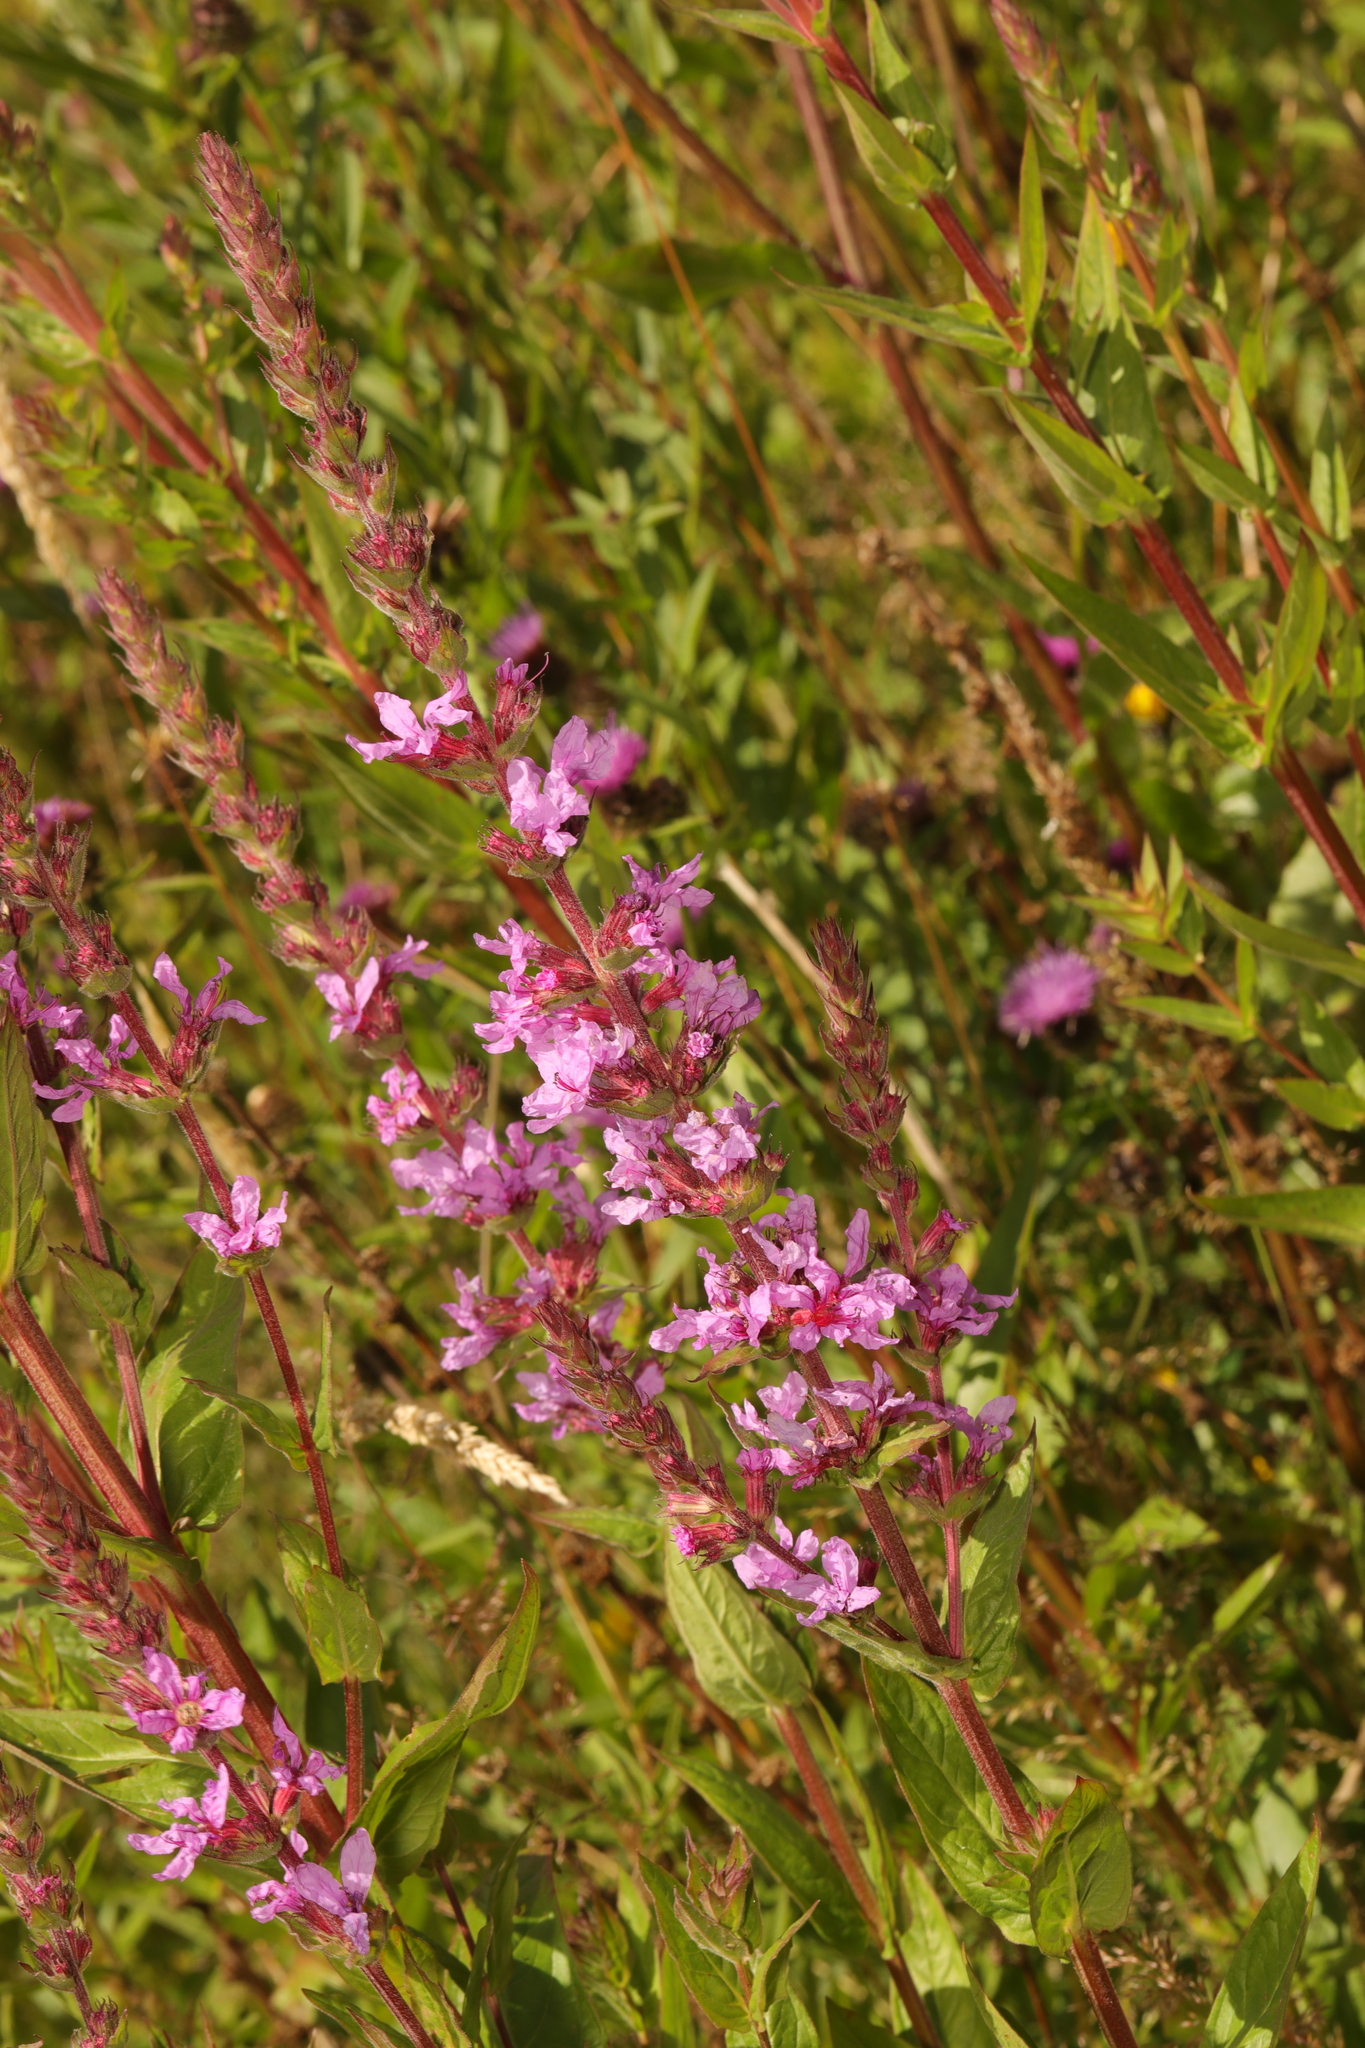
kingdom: Plantae
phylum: Tracheophyta
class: Magnoliopsida
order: Myrtales
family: Lythraceae
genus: Lythrum
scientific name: Lythrum salicaria
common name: Purple loosestrife
